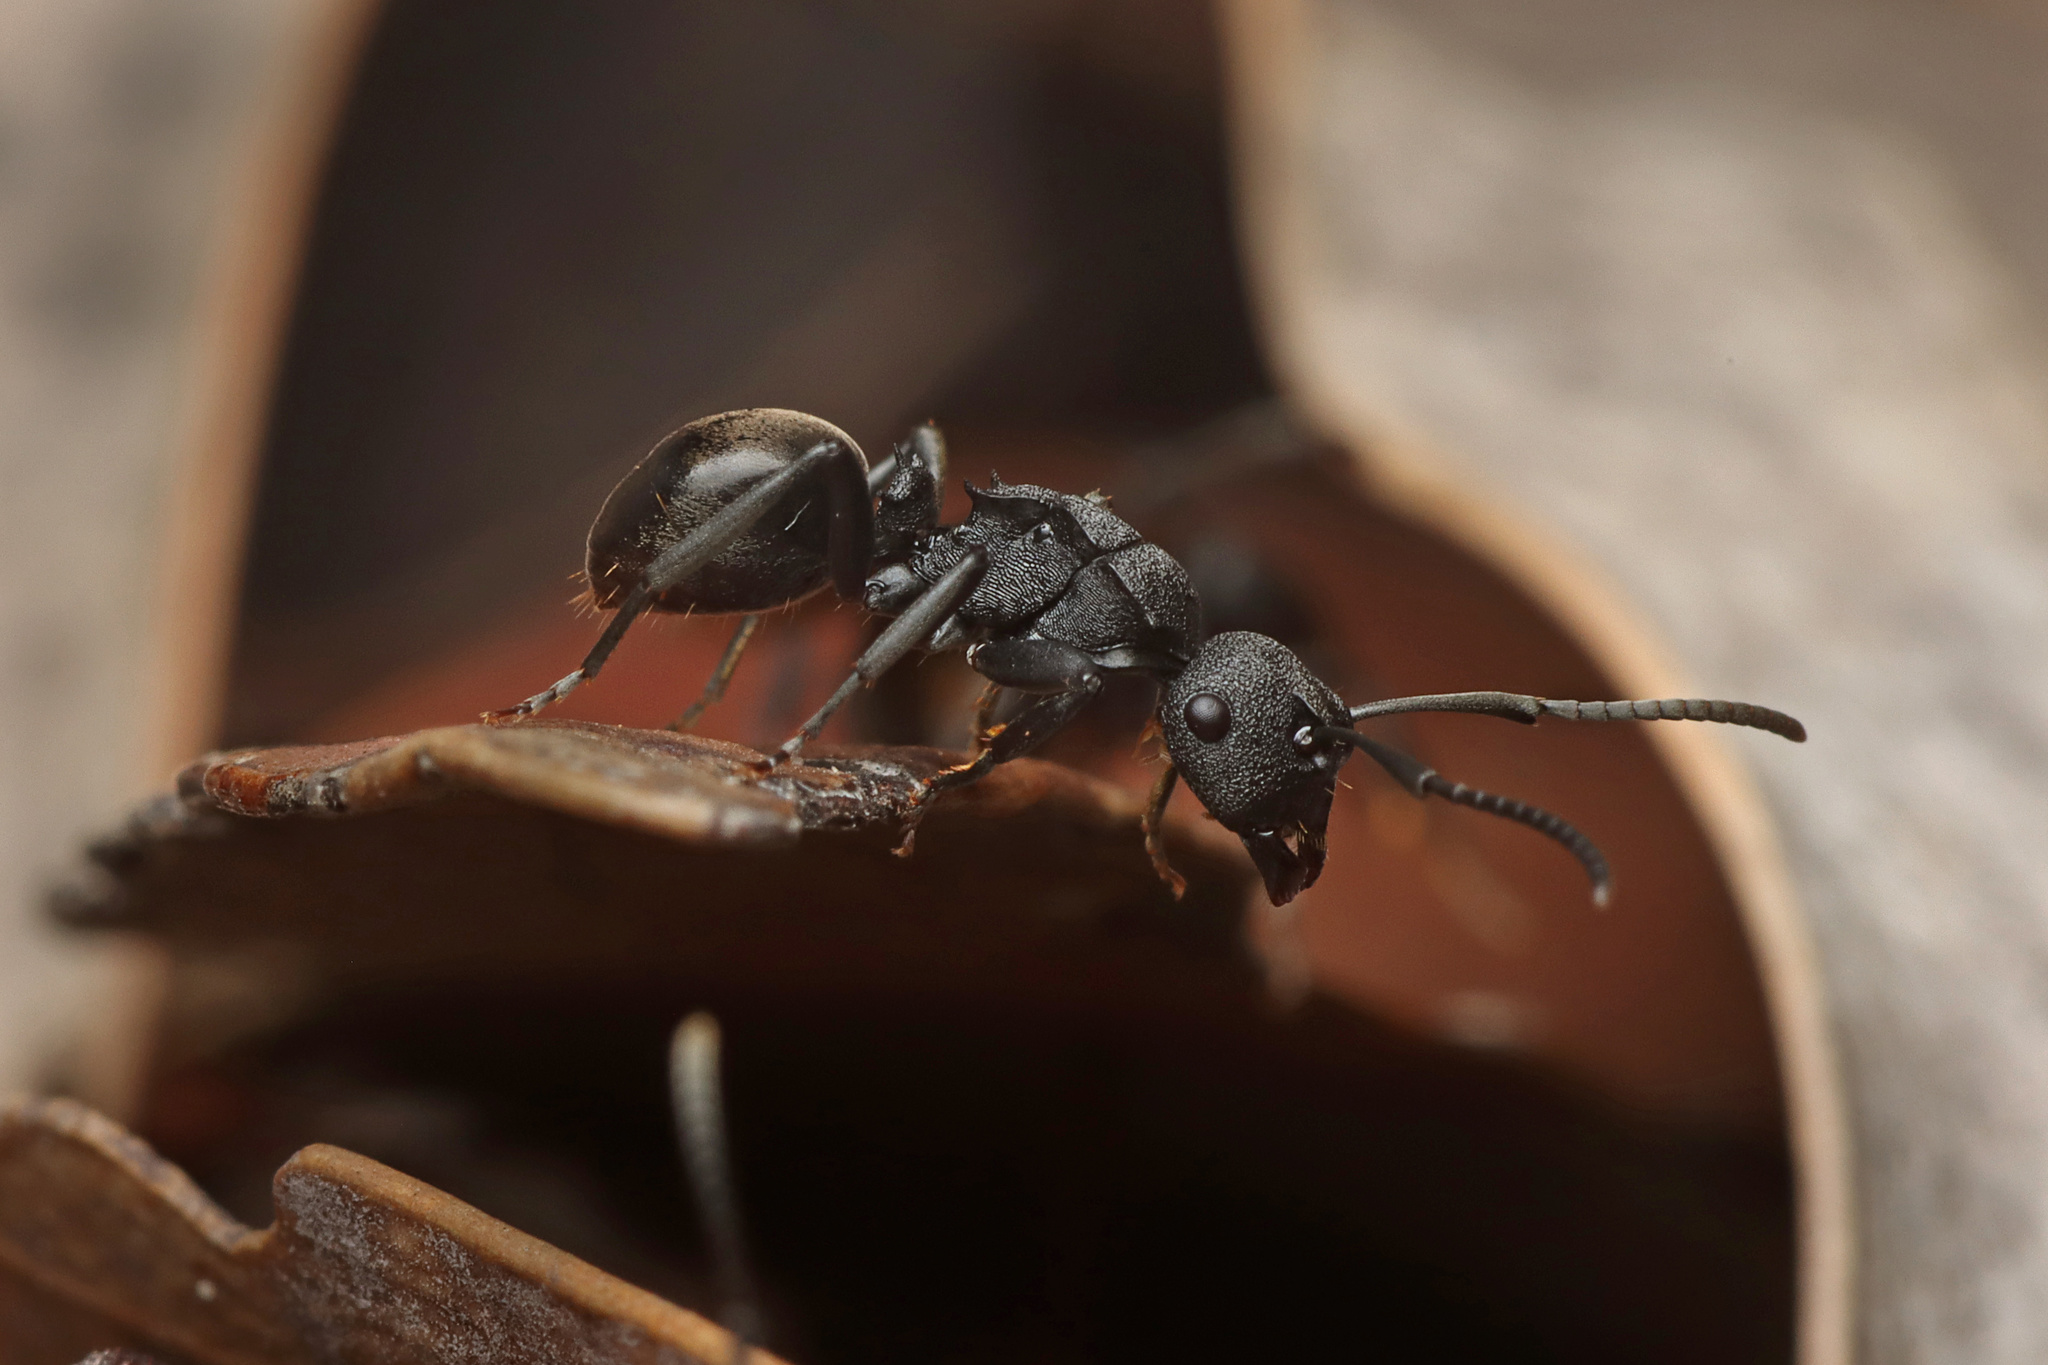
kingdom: Animalia
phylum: Arthropoda
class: Insecta
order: Hymenoptera
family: Formicidae
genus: Polyrhachis
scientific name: Polyrhachis phryne
